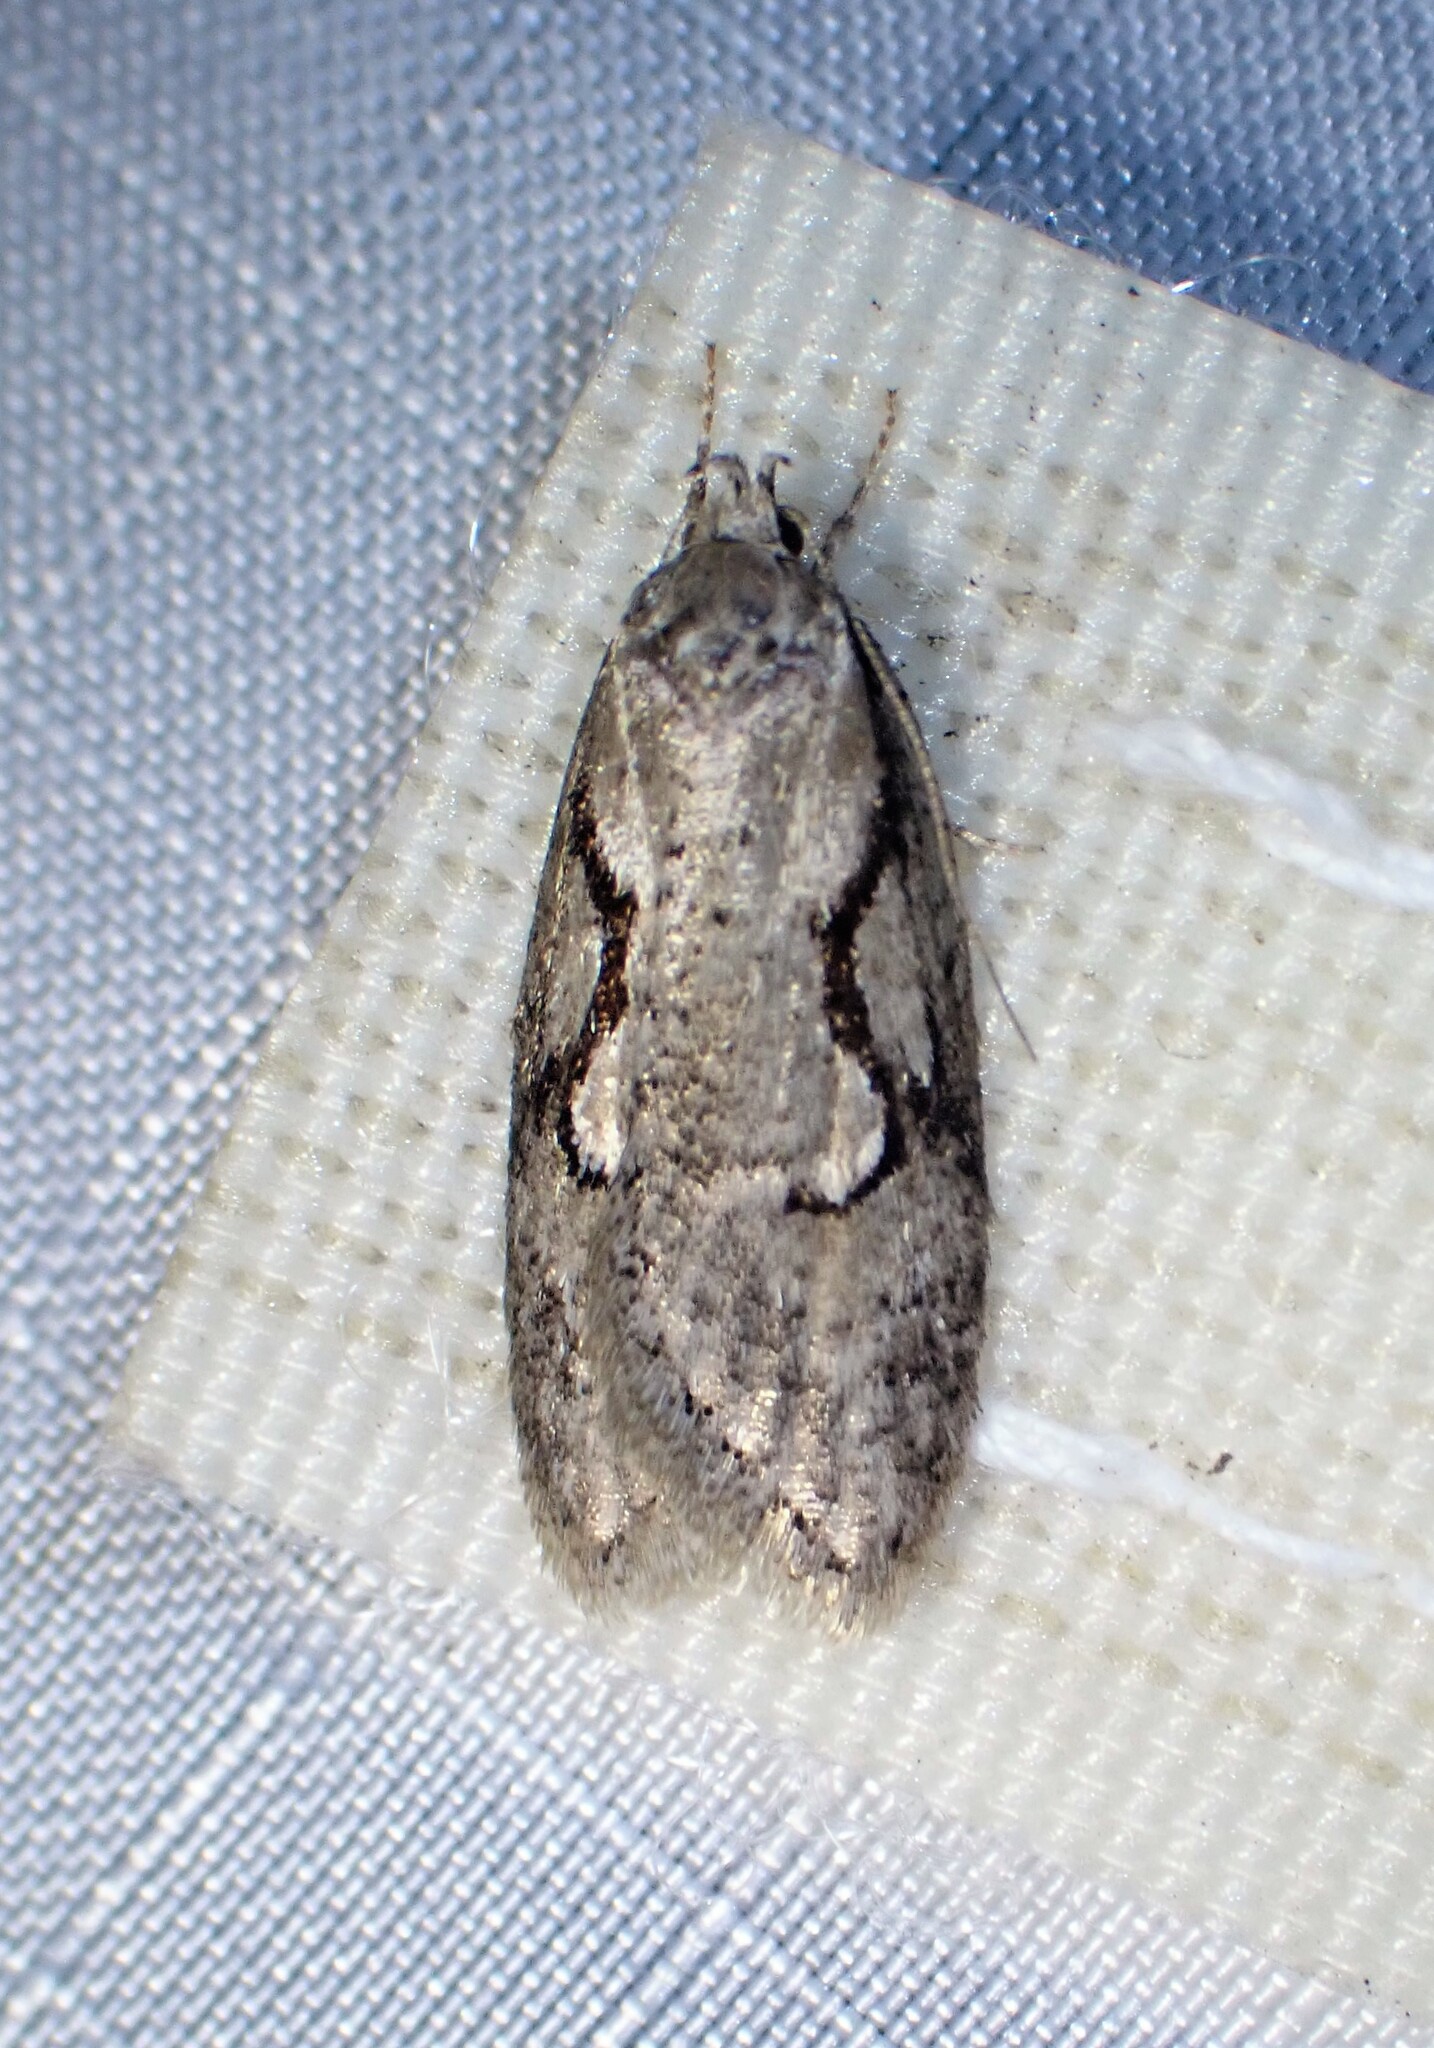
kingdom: Animalia
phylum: Arthropoda
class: Insecta
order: Lepidoptera
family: Depressariidae
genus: Semioscopis
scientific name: Semioscopis packardella
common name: Packard's concealer moth
